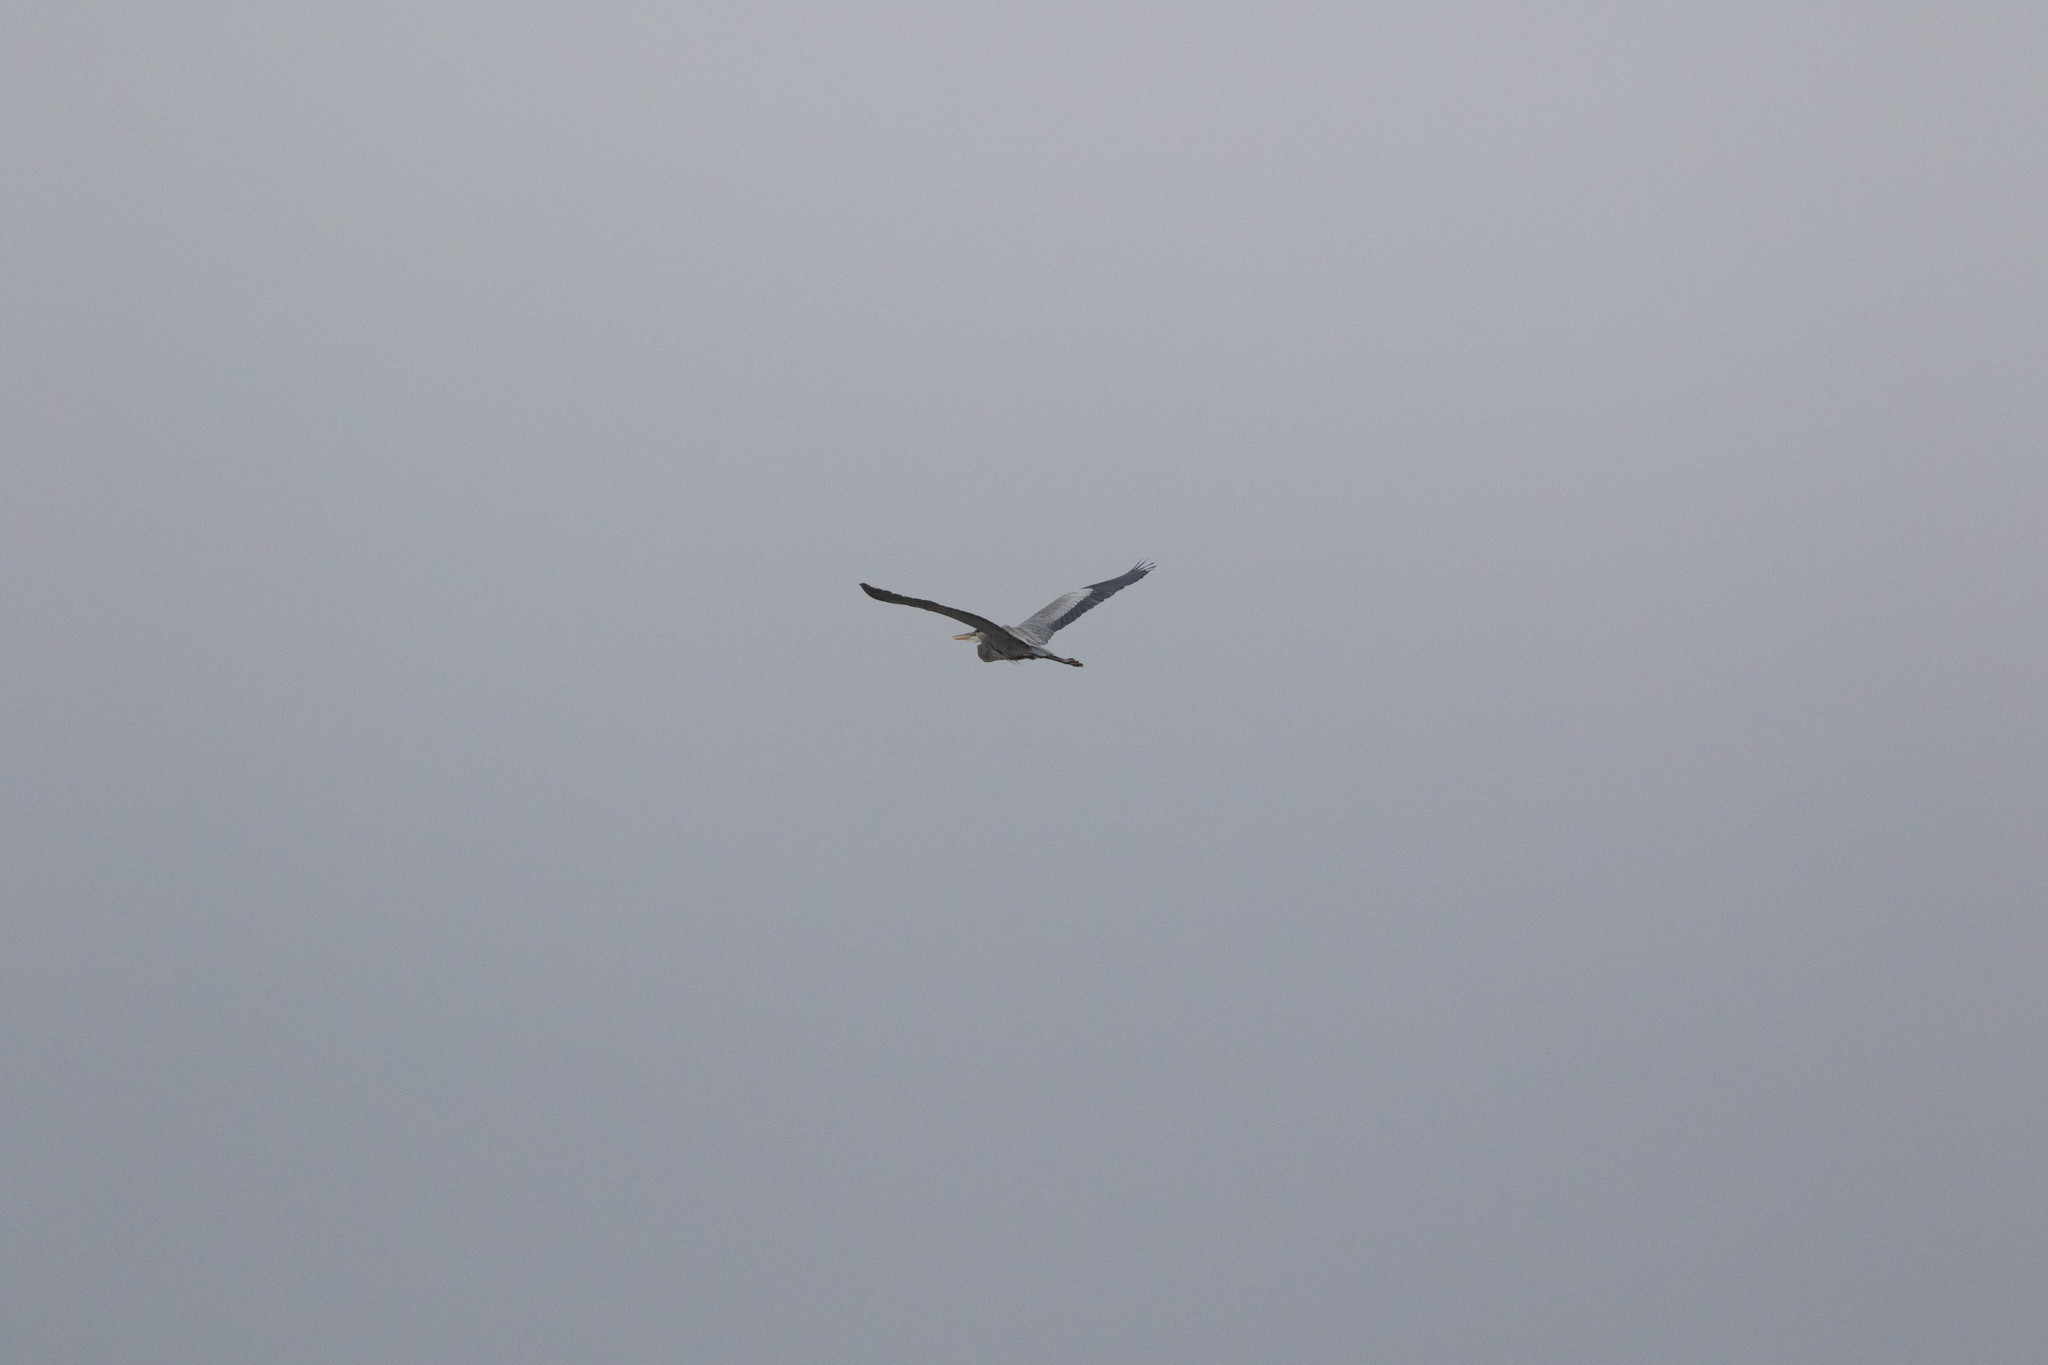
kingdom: Animalia
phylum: Chordata
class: Aves
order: Pelecaniformes
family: Ardeidae
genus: Ardea
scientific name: Ardea herodias
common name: Great blue heron
